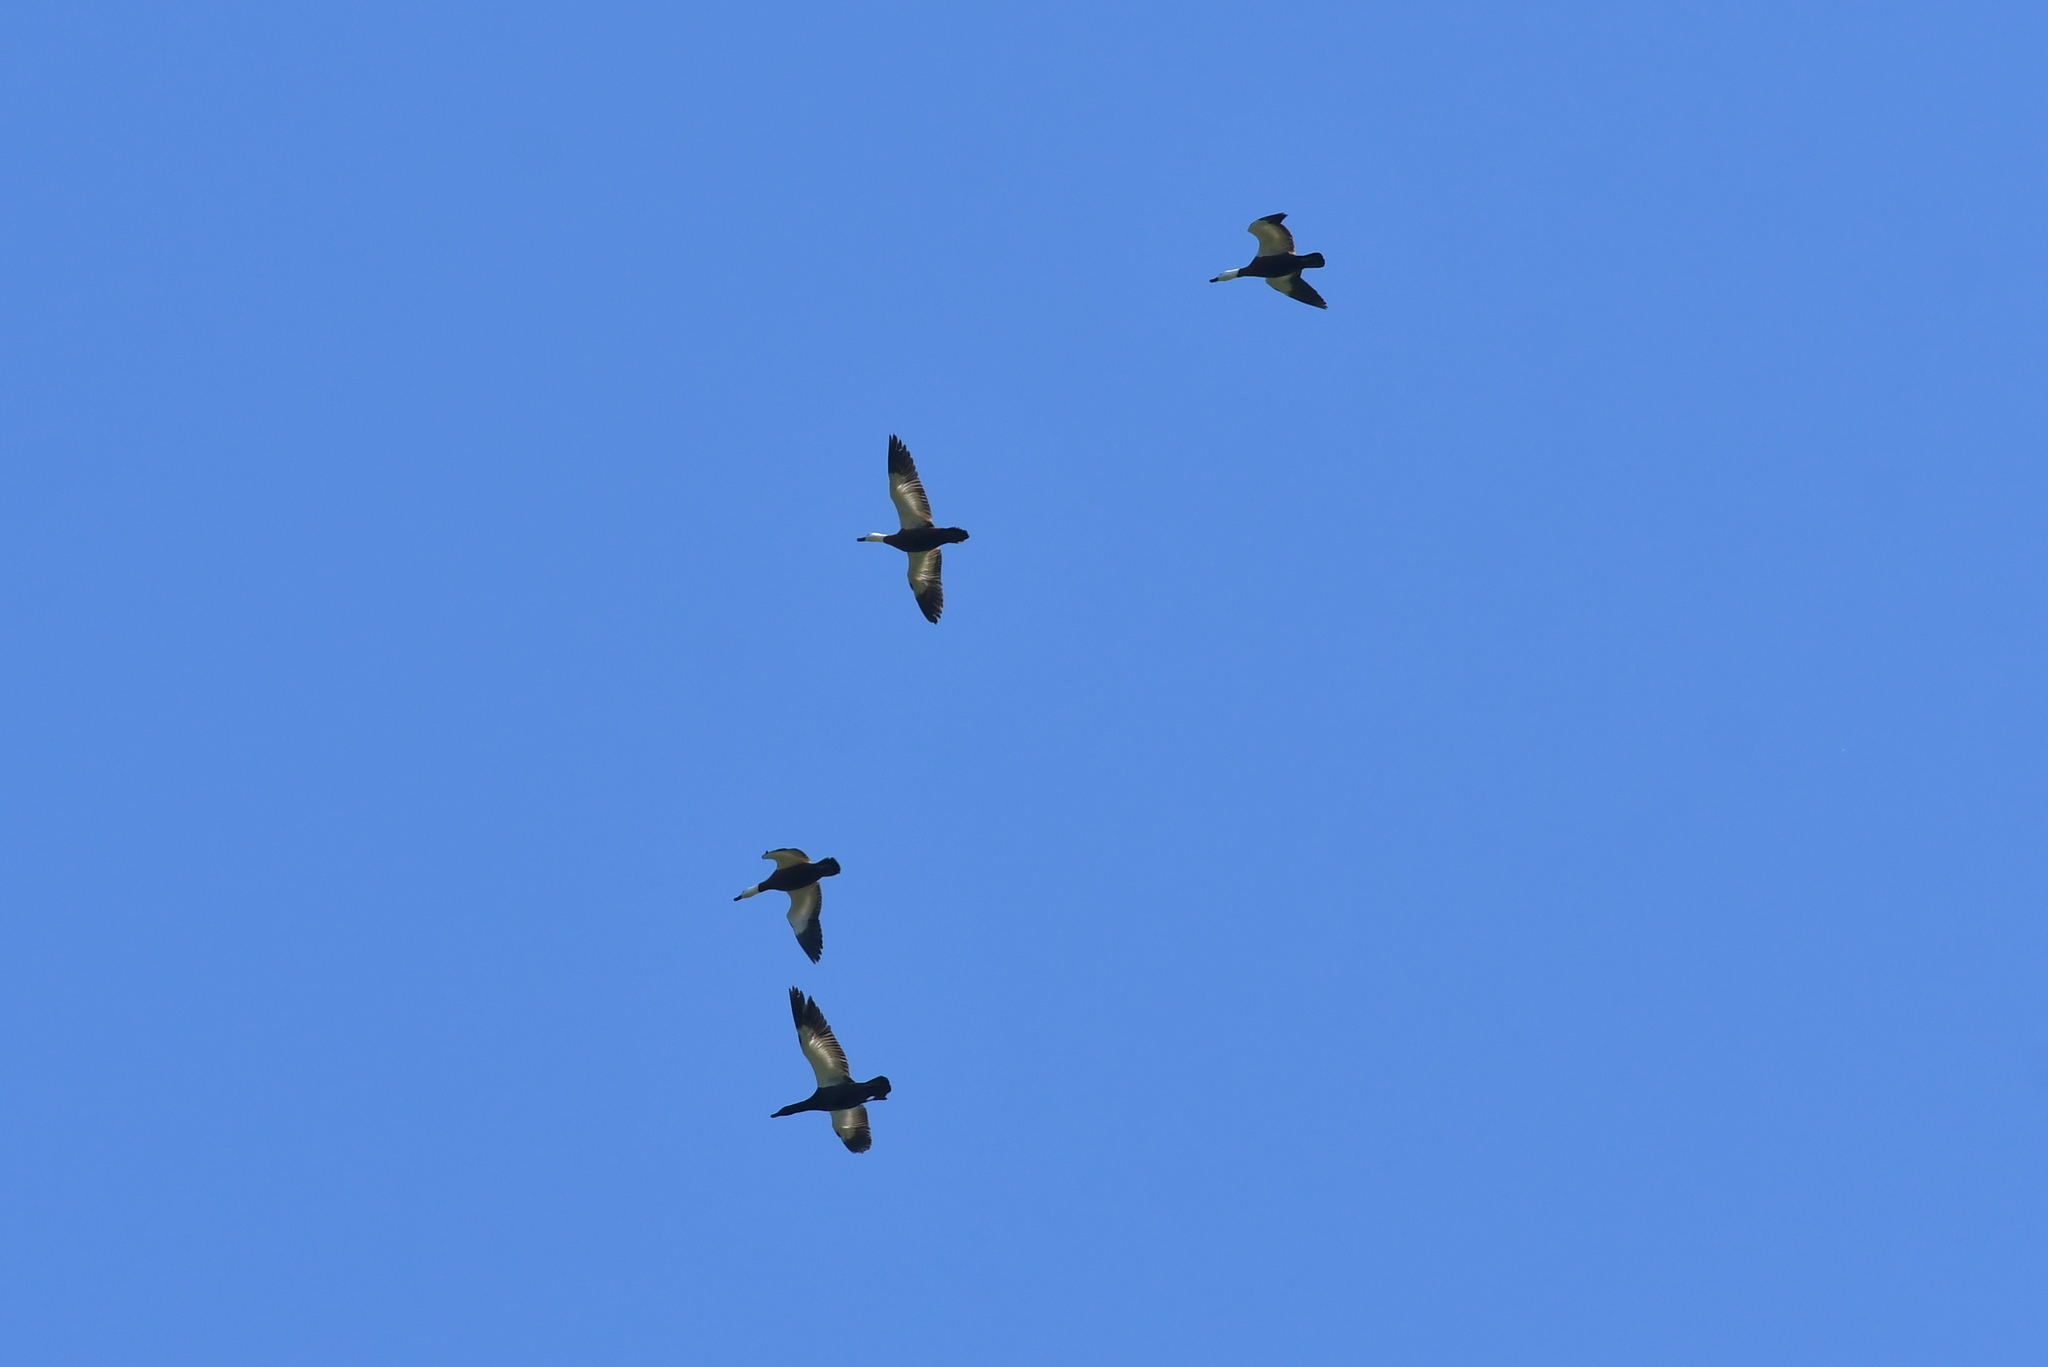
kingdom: Animalia
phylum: Chordata
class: Aves
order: Anseriformes
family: Anatidae
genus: Tadorna
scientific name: Tadorna variegata
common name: Paradise shelduck
